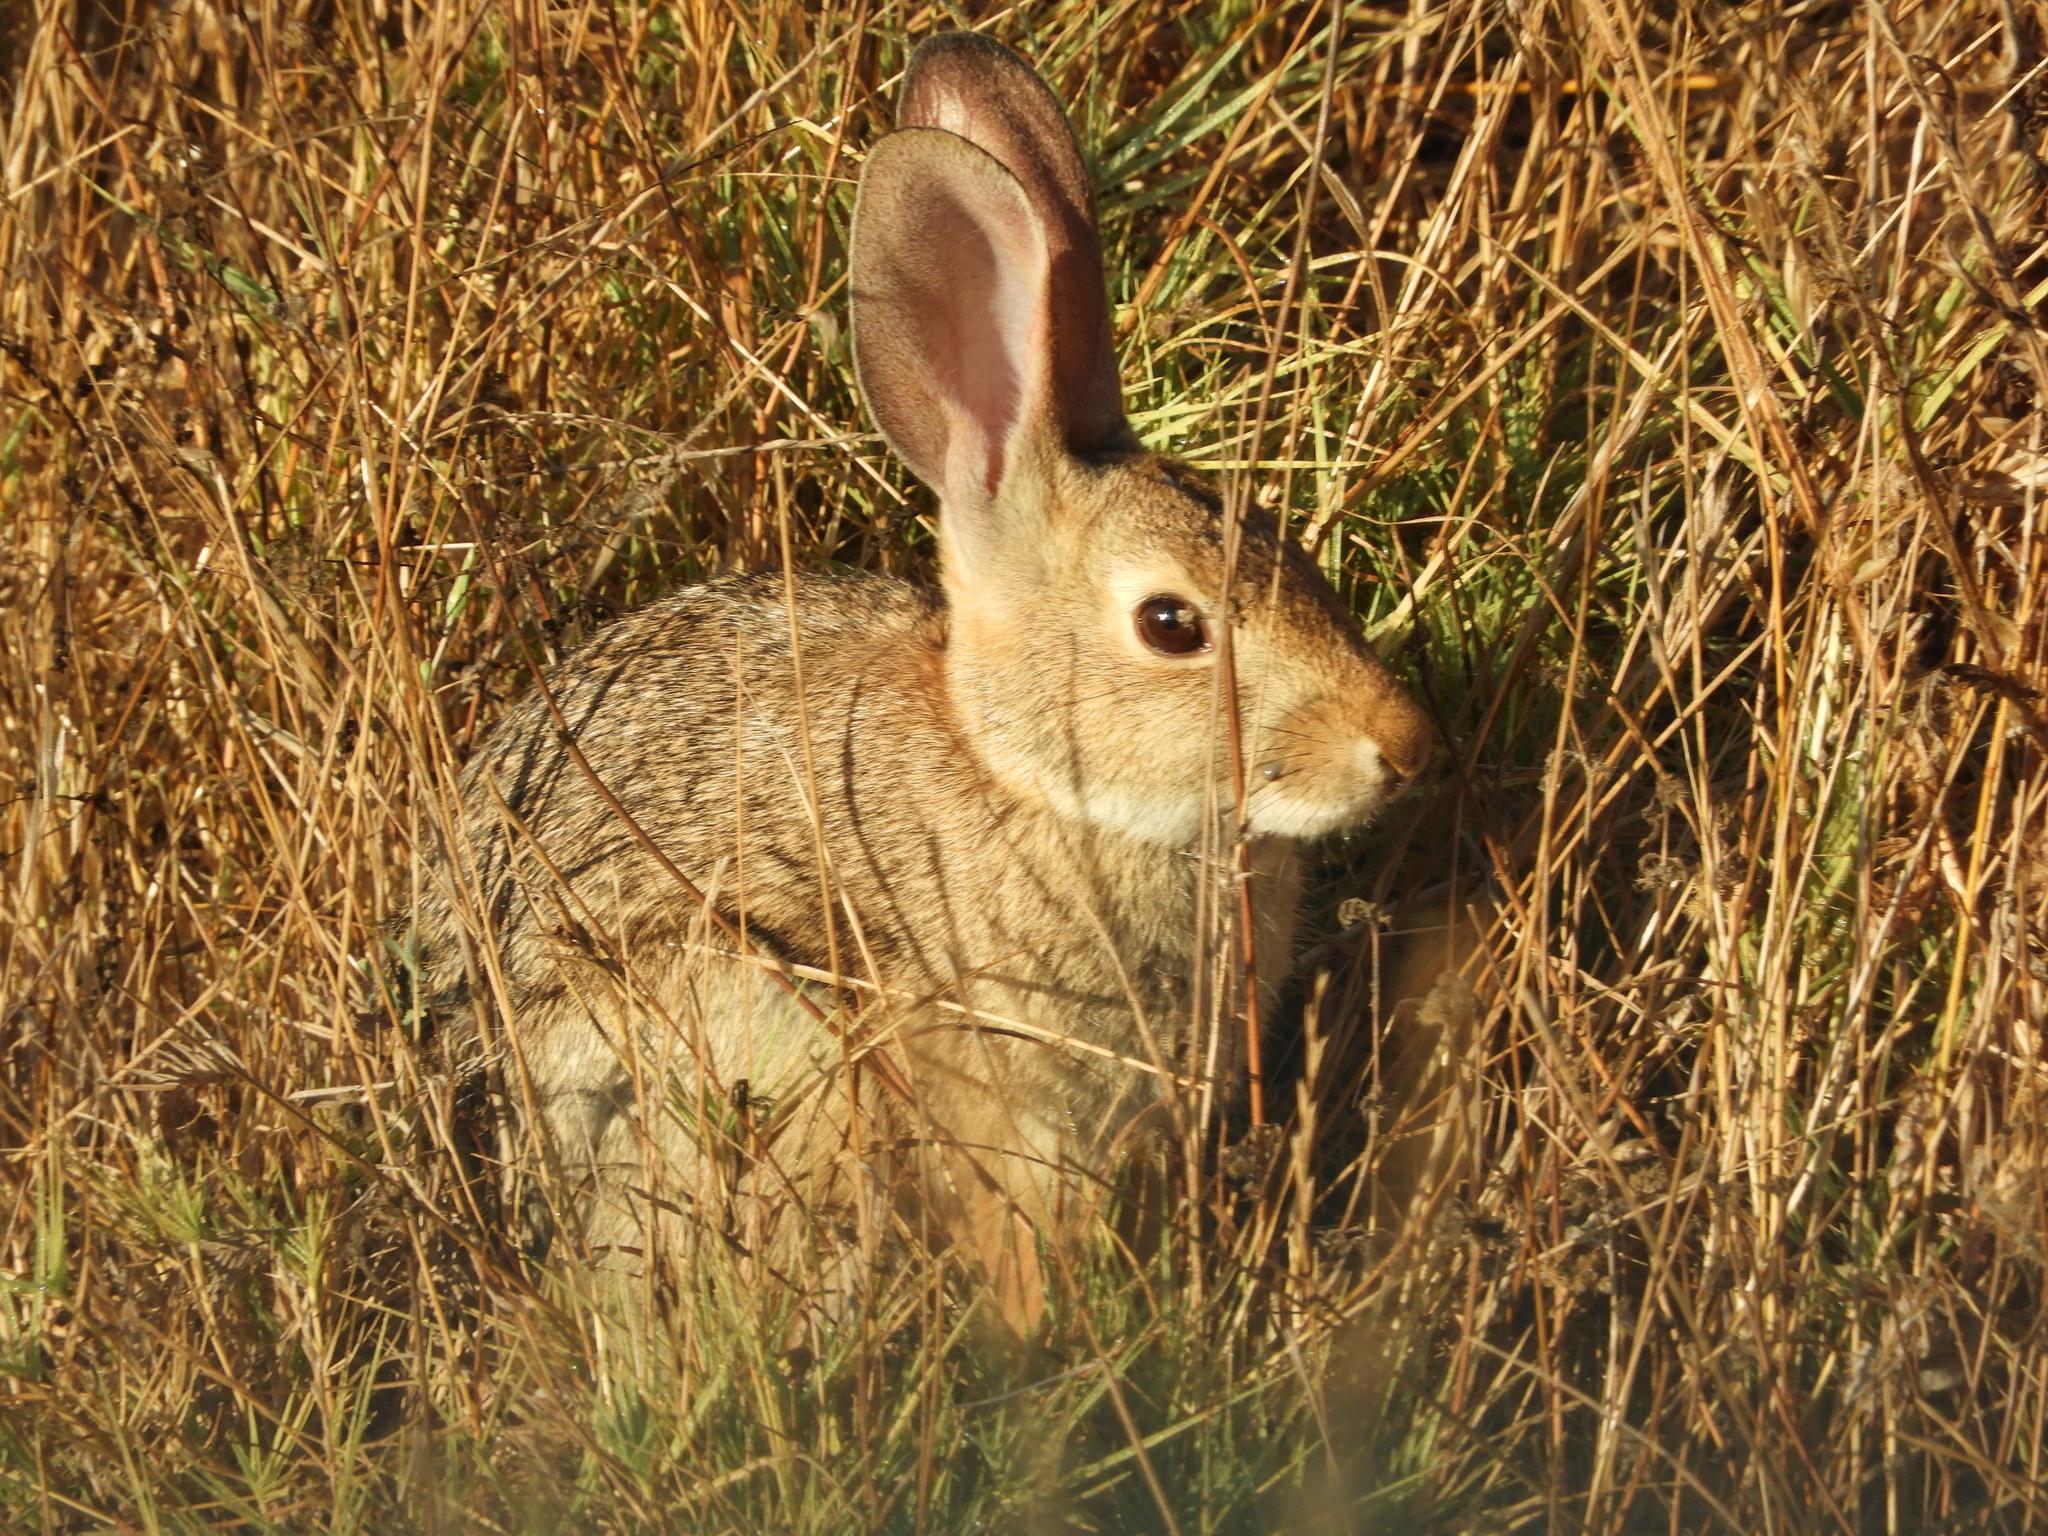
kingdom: Animalia
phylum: Chordata
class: Mammalia
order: Lagomorpha
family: Leporidae
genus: Lepus
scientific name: Lepus californicus
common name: Black-tailed jackrabbit
